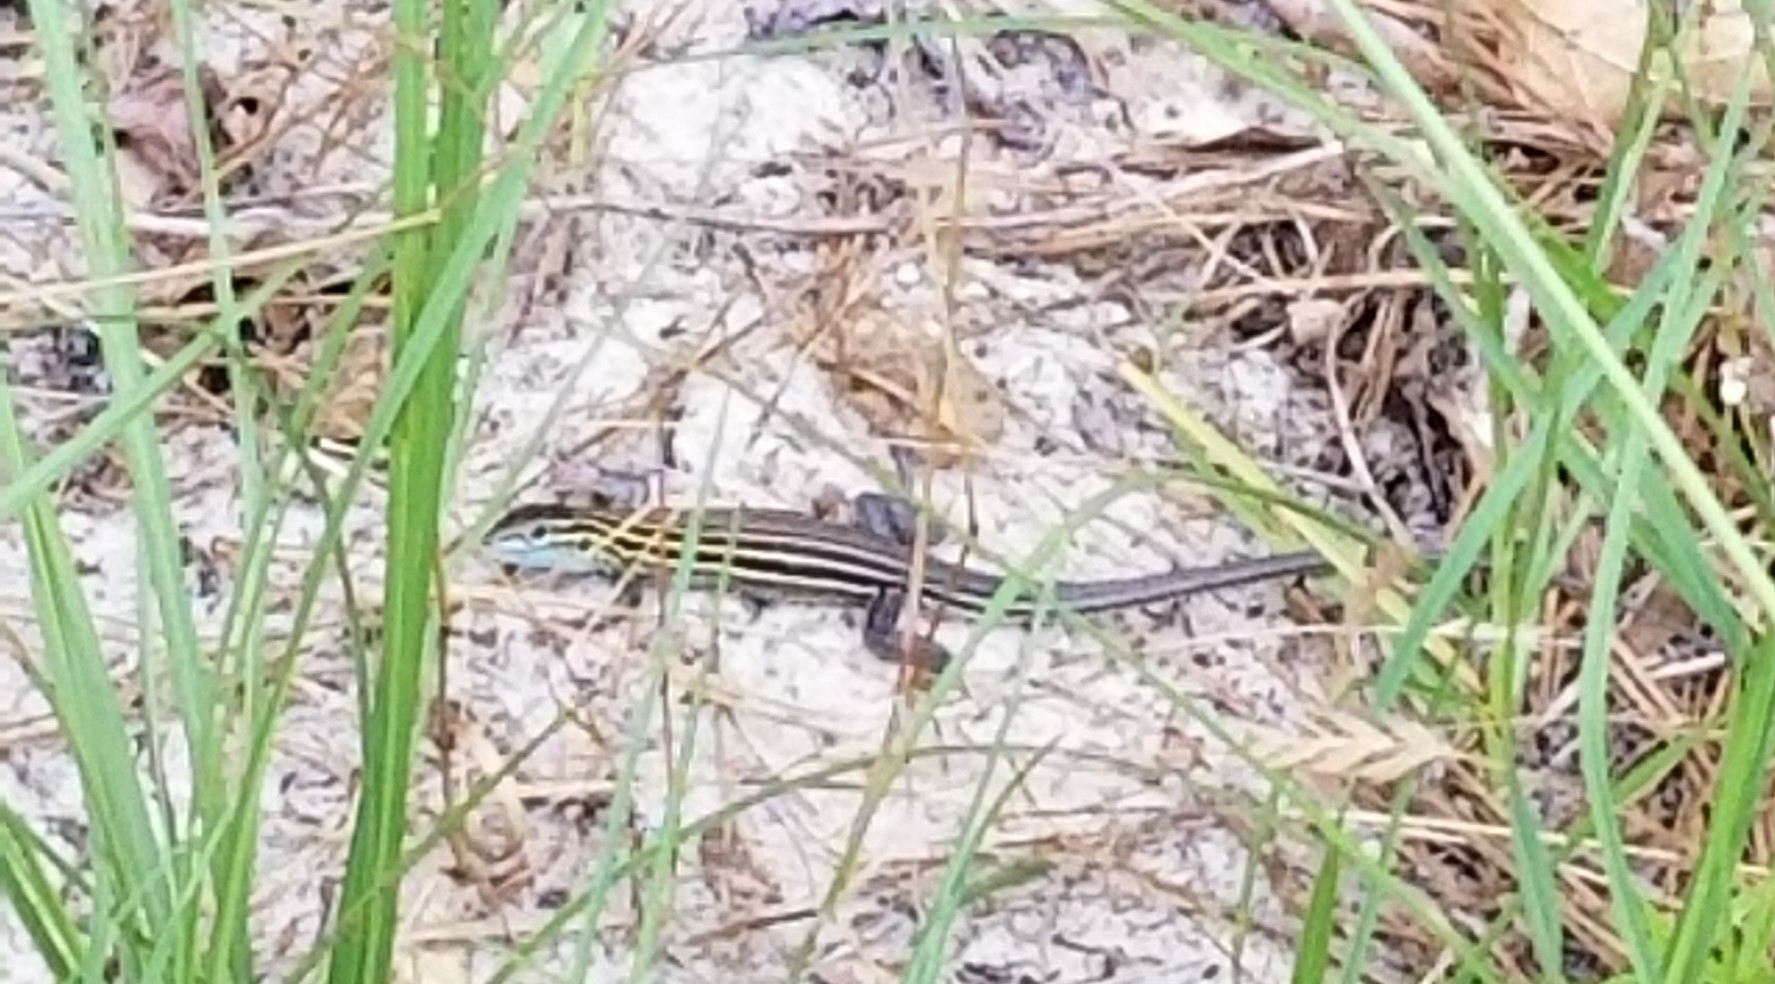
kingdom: Animalia
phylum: Chordata
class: Squamata
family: Teiidae
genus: Aspidoscelis
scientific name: Aspidoscelis sexlineatus
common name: Six-lined racerunner
